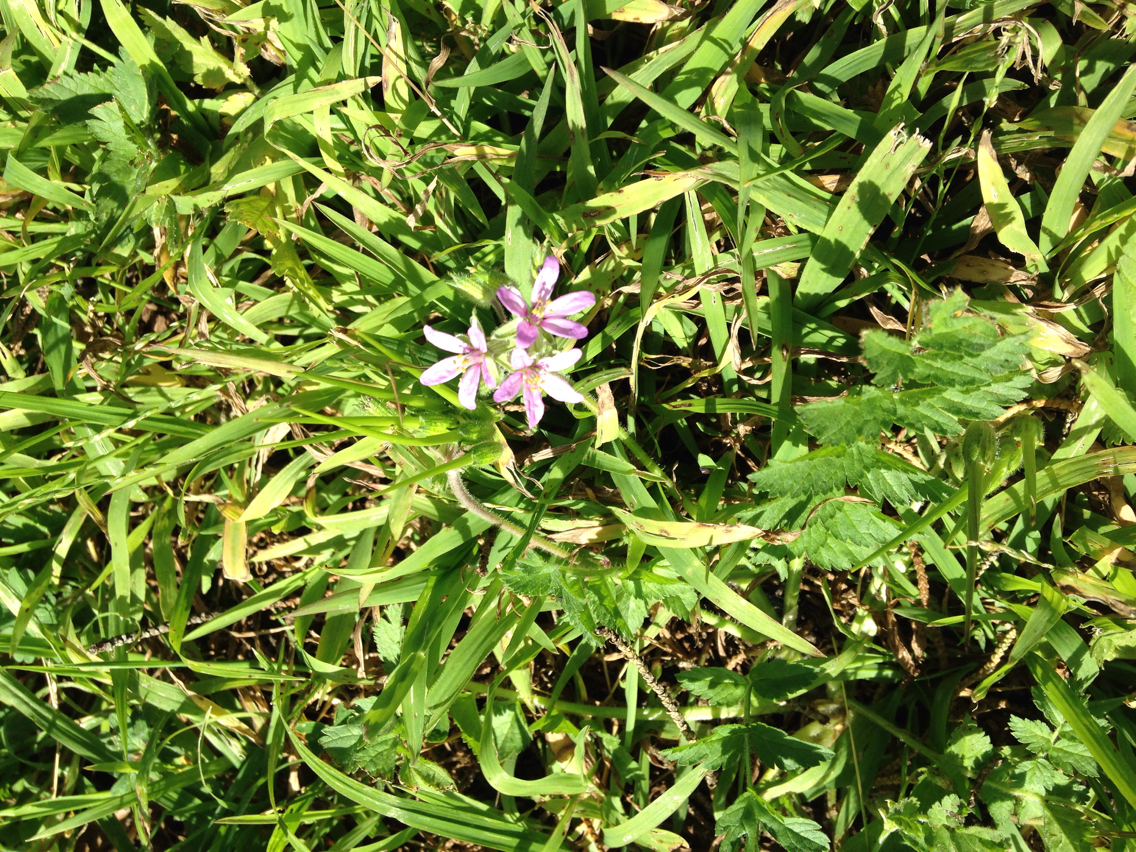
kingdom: Plantae
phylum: Tracheophyta
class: Magnoliopsida
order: Geraniales
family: Geraniaceae
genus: Erodium
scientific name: Erodium moschatum
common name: Musk stork's-bill
